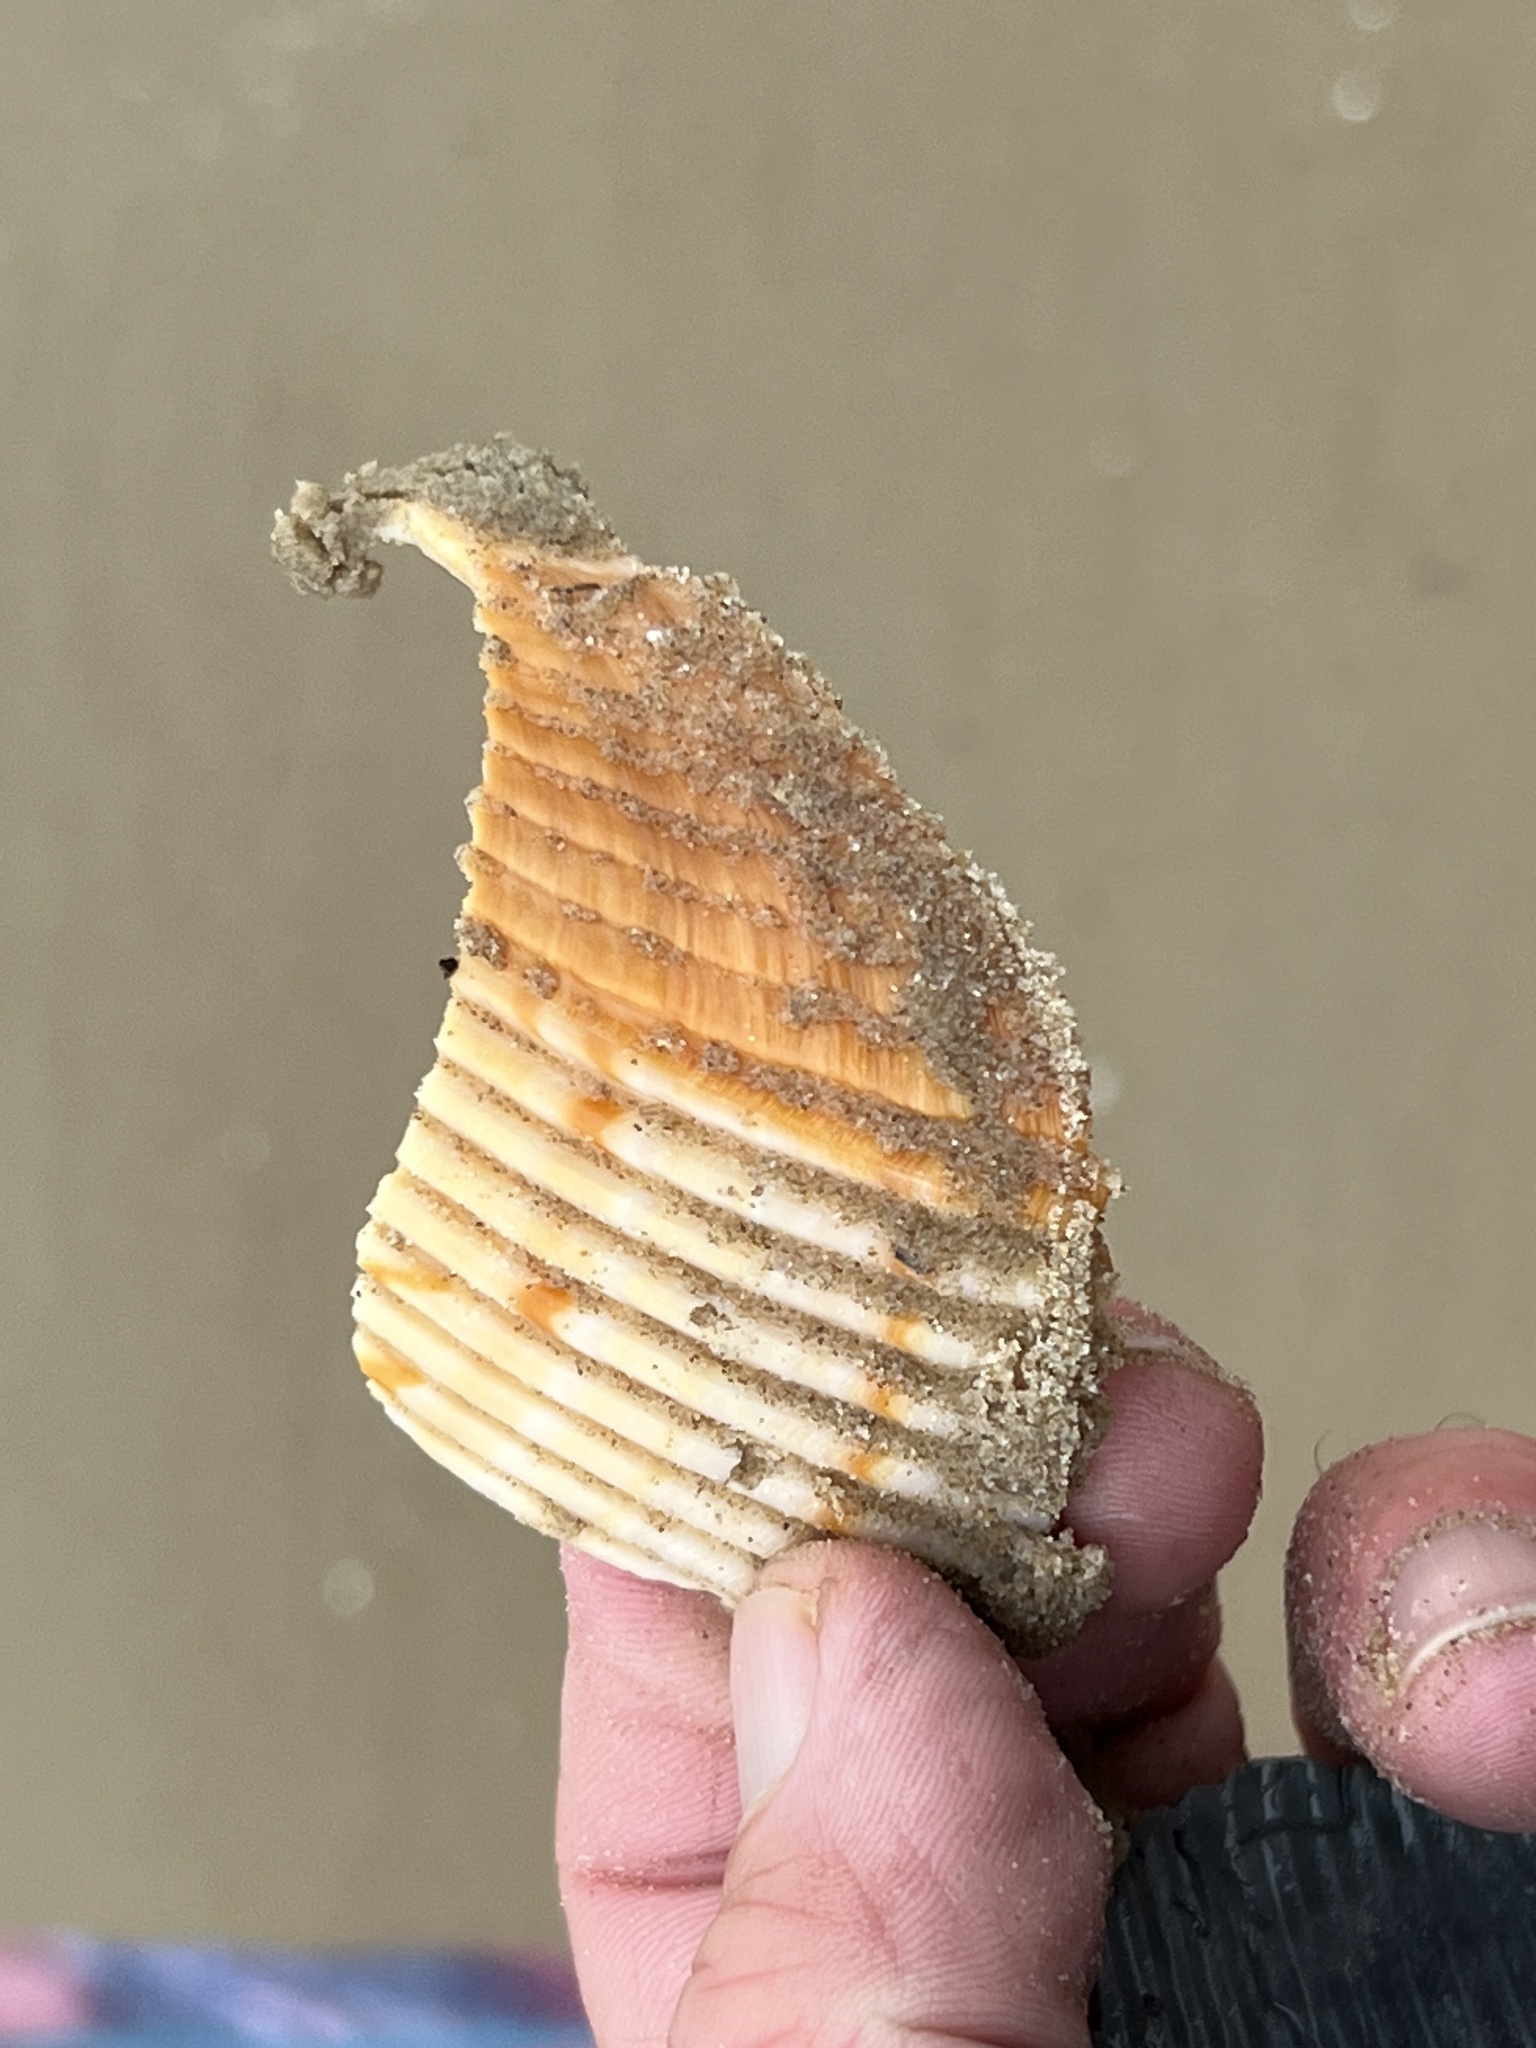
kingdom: Animalia
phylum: Mollusca
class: Bivalvia
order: Cardiida
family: Cardiidae
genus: Dinocardium
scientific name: Dinocardium robustum
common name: Atlantic giant cockle
